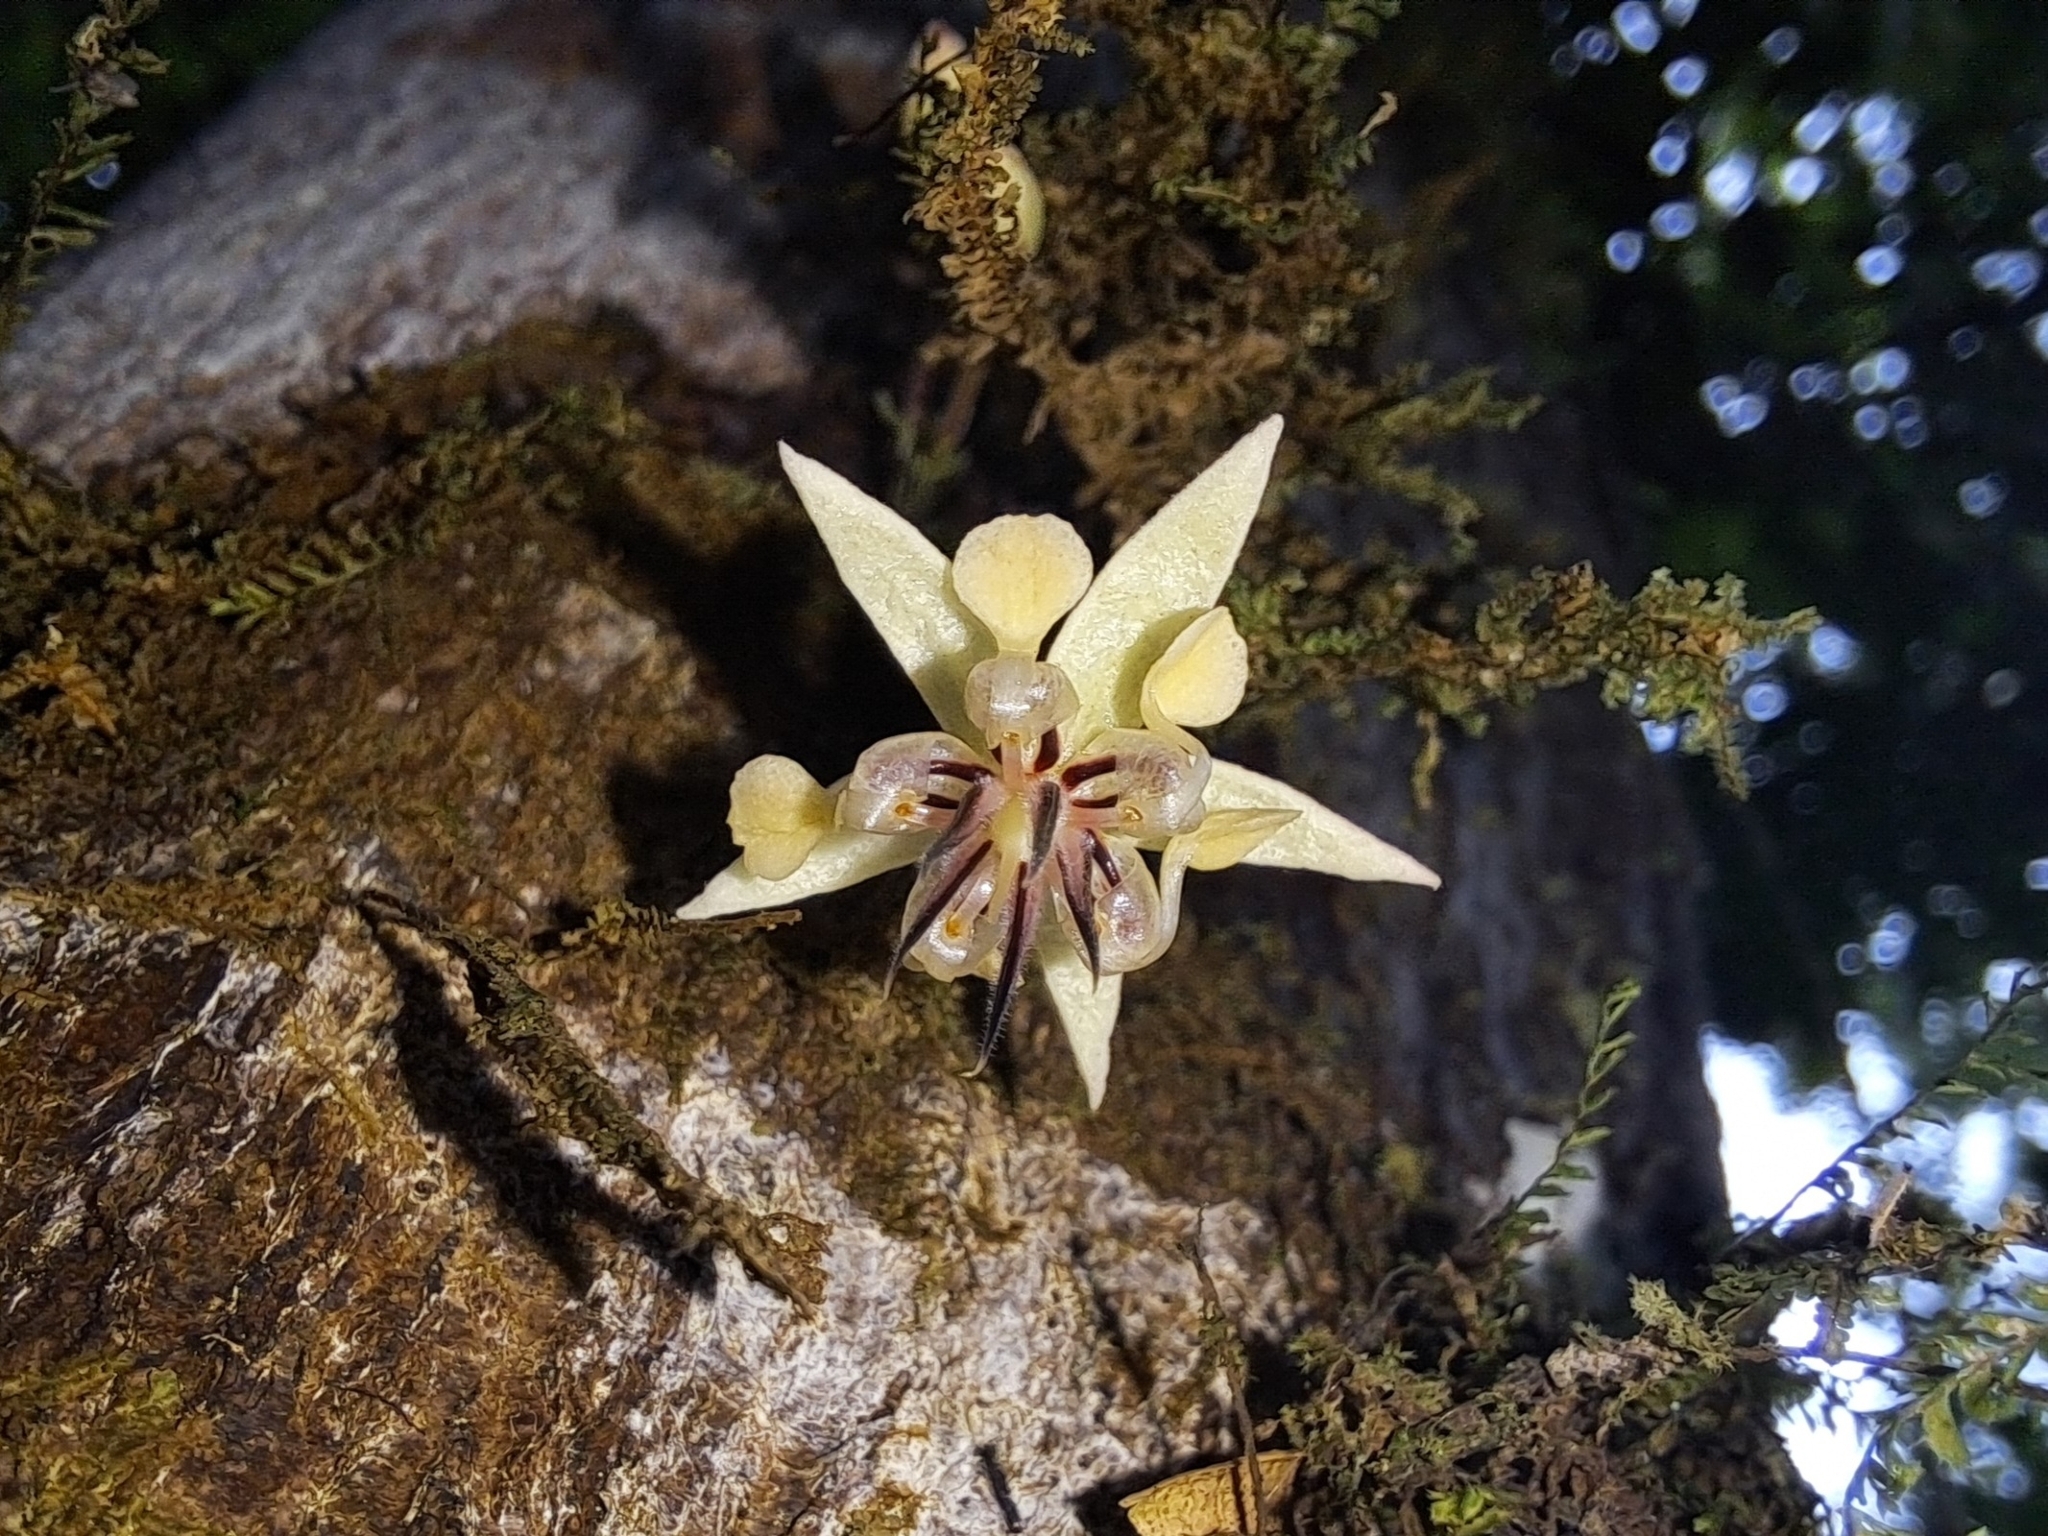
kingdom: Plantae
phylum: Tracheophyta
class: Magnoliopsida
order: Malvales
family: Malvaceae
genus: Theobroma
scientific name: Theobroma cacao
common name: Cocoa
